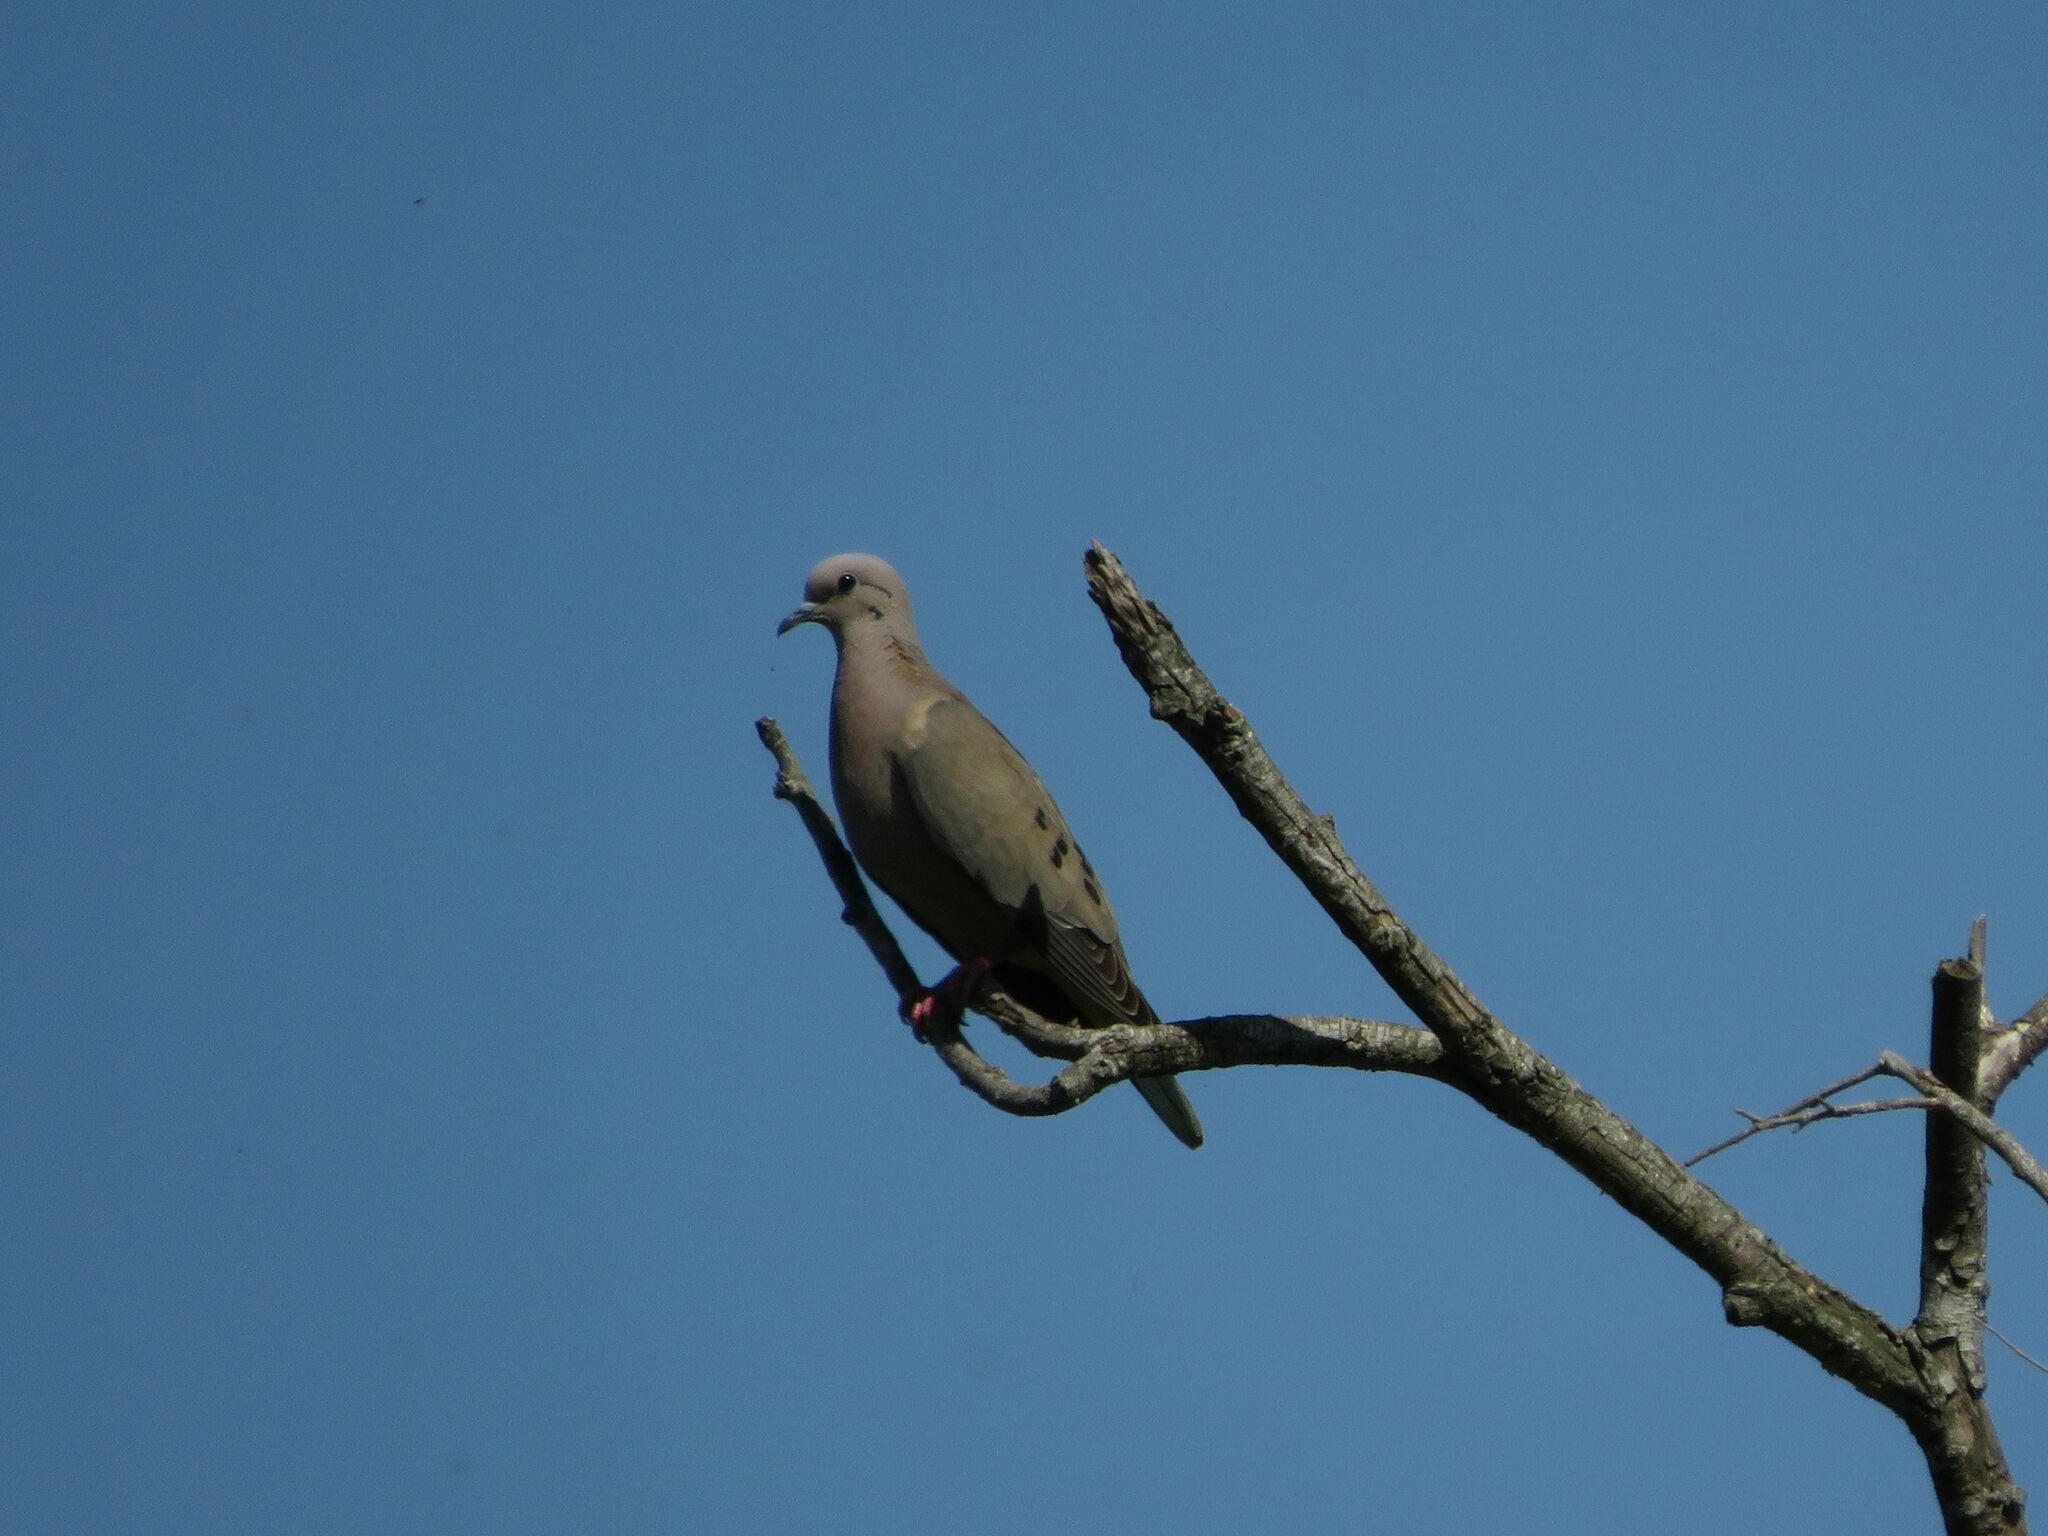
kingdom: Animalia
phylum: Chordata
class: Aves
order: Columbiformes
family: Columbidae
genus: Zenaida
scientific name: Zenaida auriculata
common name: Eared dove
